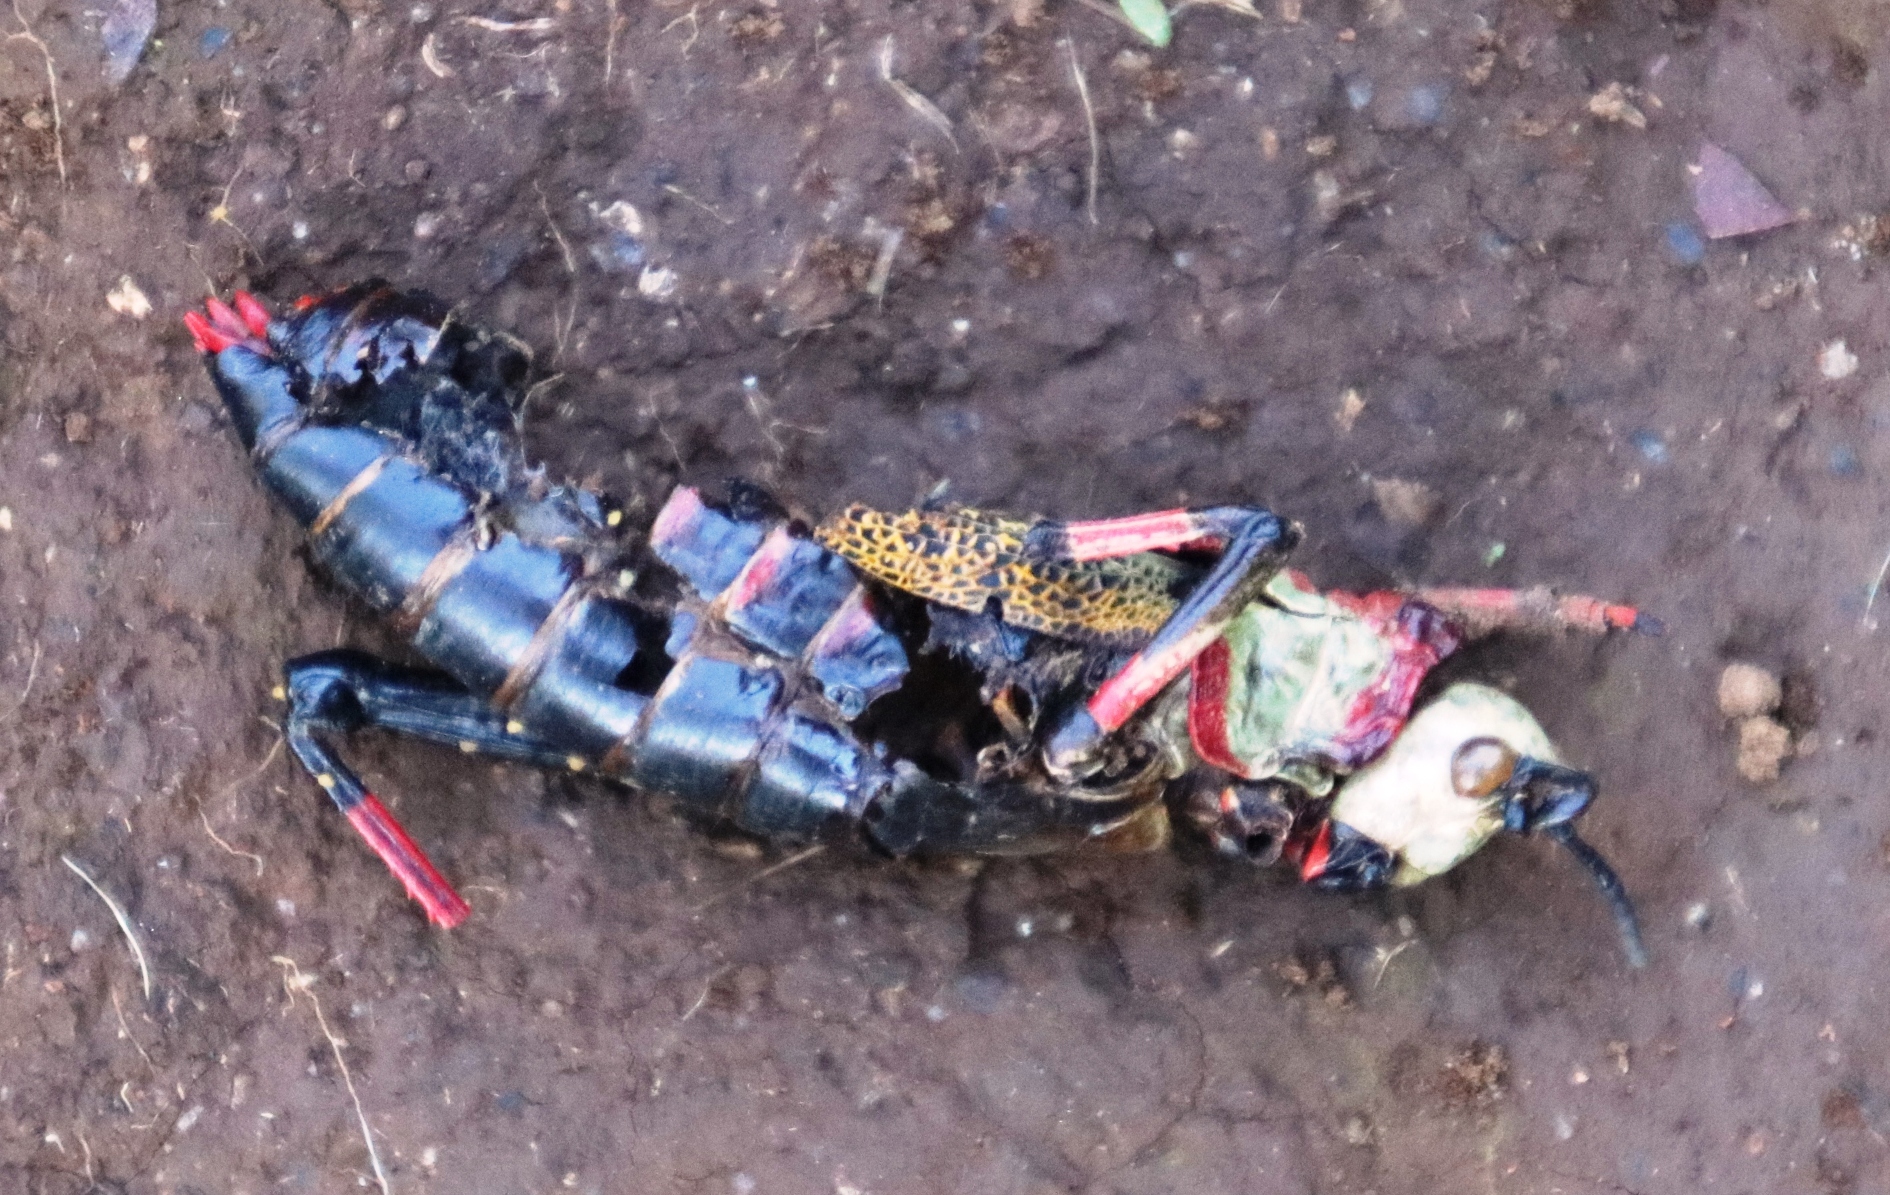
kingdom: Animalia
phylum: Arthropoda
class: Insecta
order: Orthoptera
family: Pyrgomorphidae
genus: Dictyophorus
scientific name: Dictyophorus spumans
